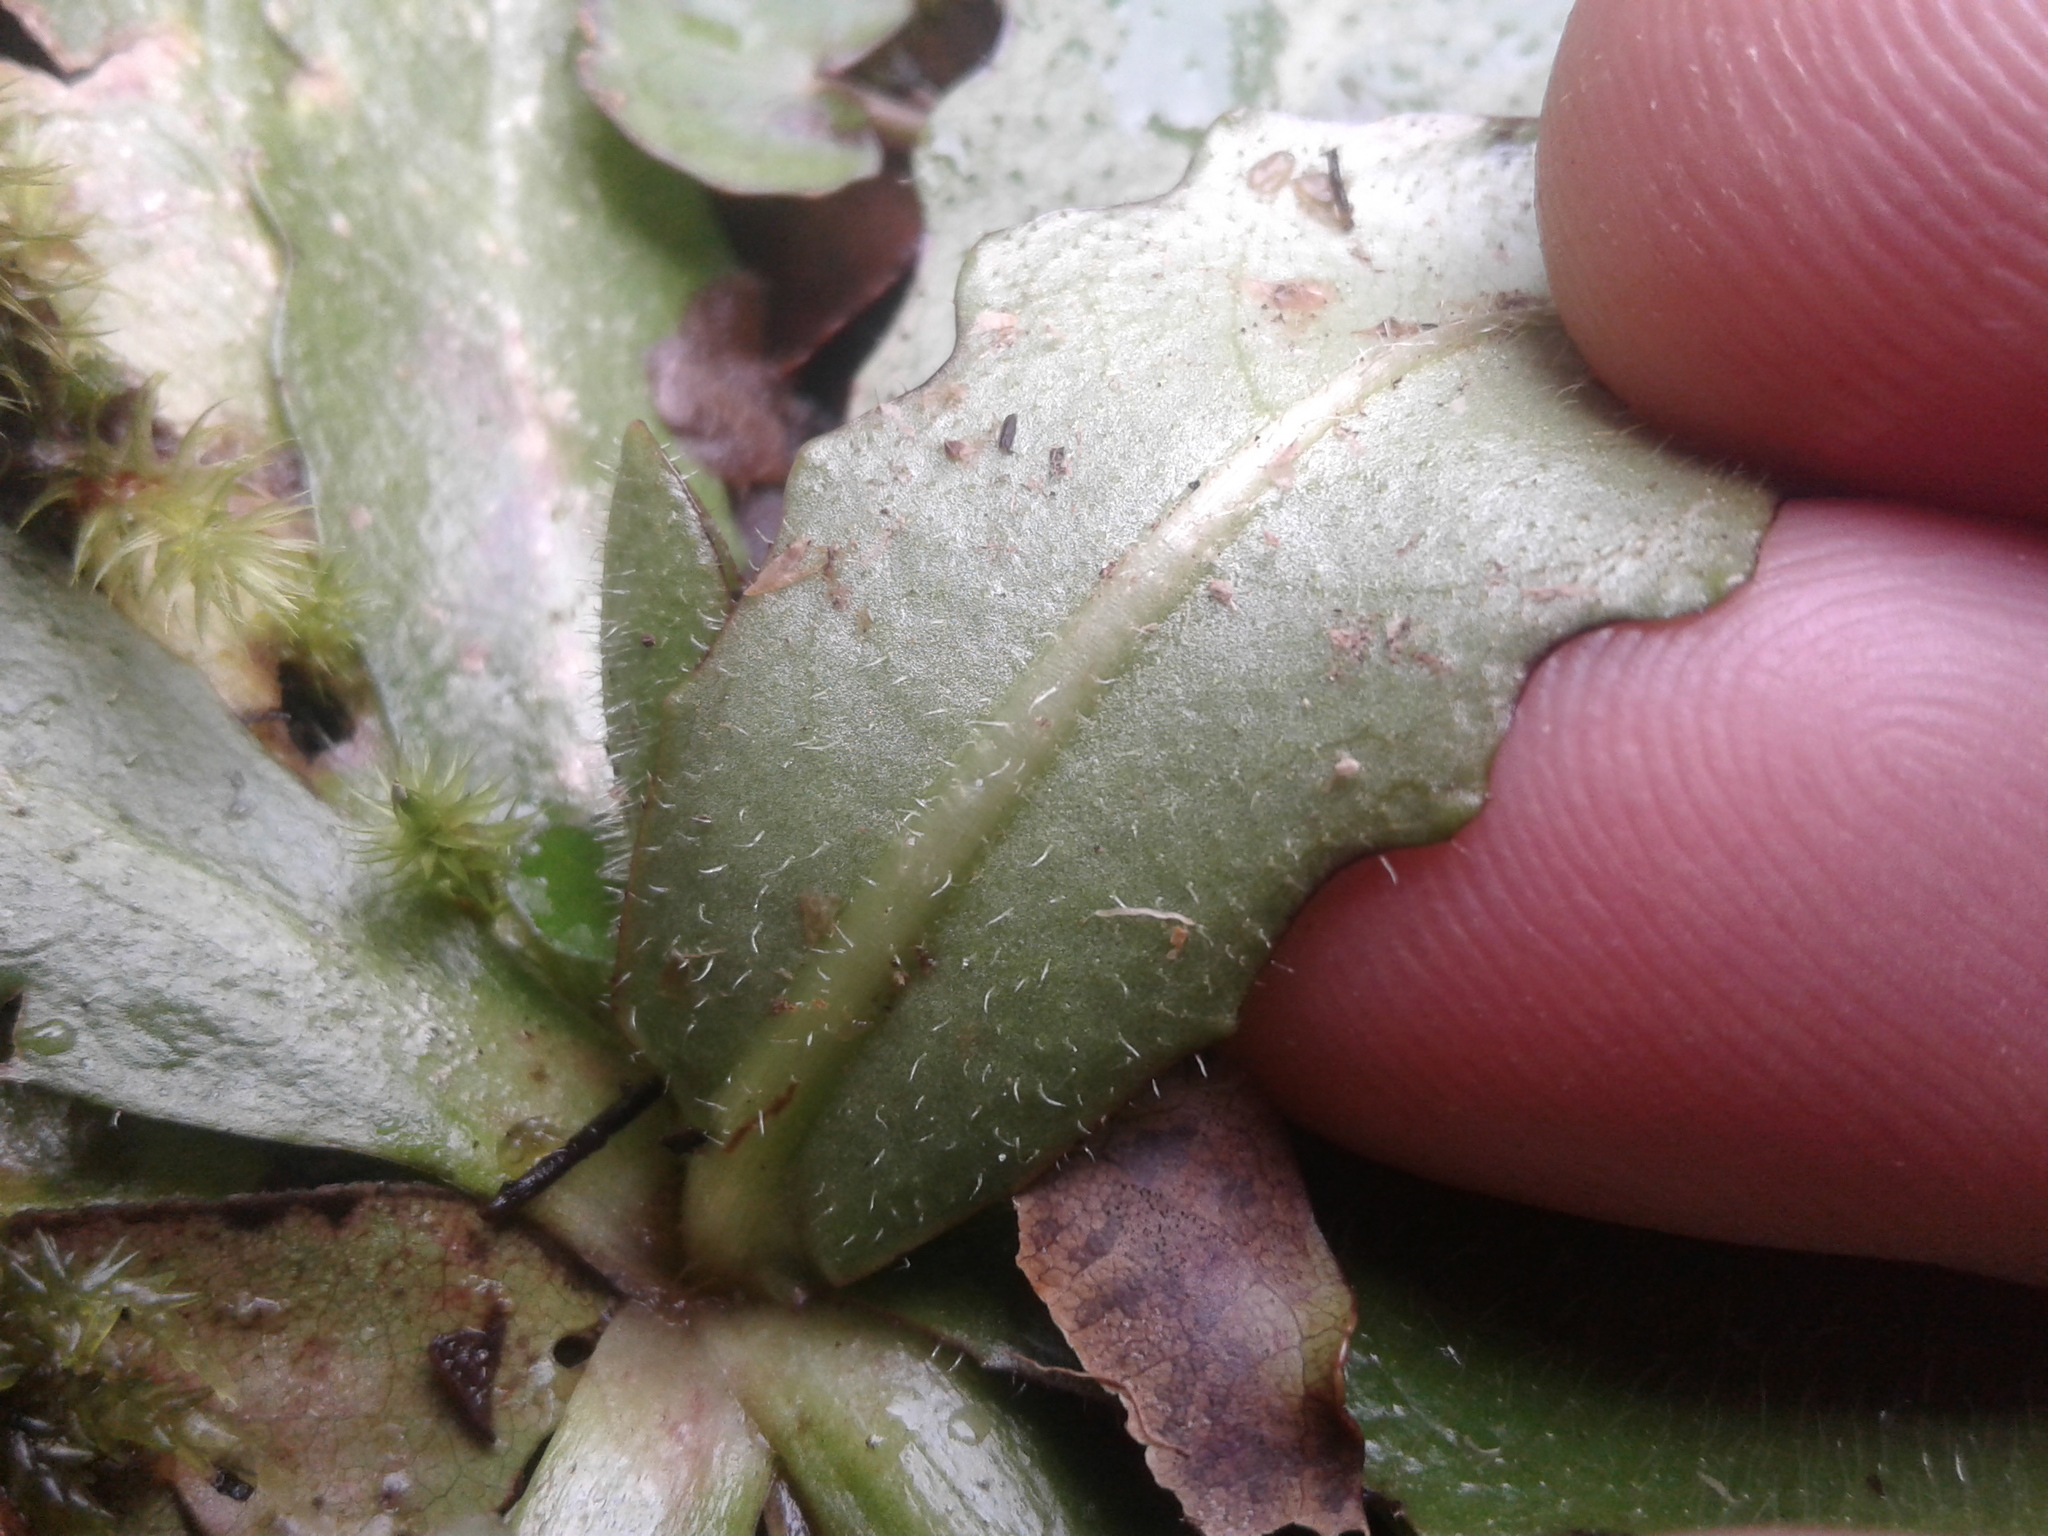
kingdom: Plantae
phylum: Tracheophyta
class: Magnoliopsida
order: Asterales
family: Asteraceae
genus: Hypochaeris
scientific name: Hypochaeris radicata
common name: Flatweed
